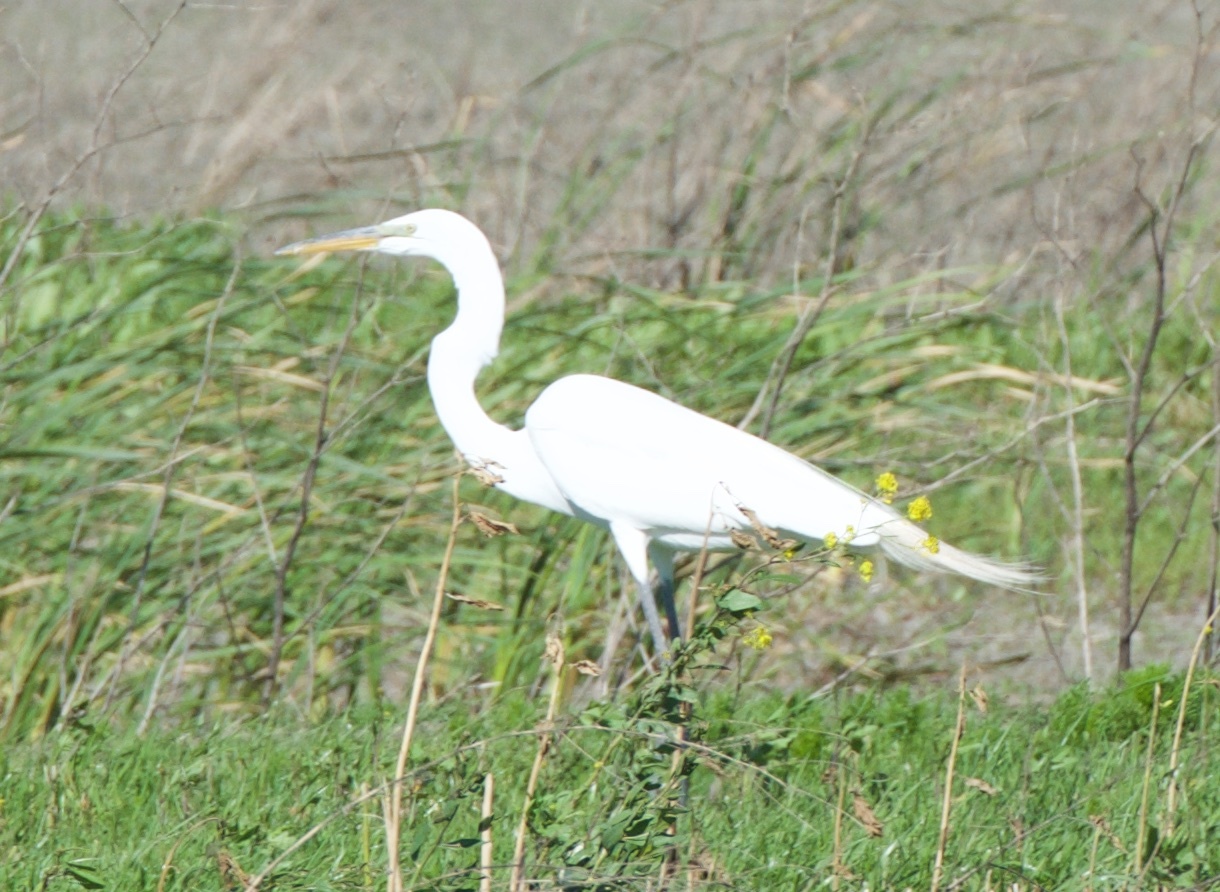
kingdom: Animalia
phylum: Chordata
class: Aves
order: Pelecaniformes
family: Ardeidae
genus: Ardea
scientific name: Ardea alba
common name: Great egret
